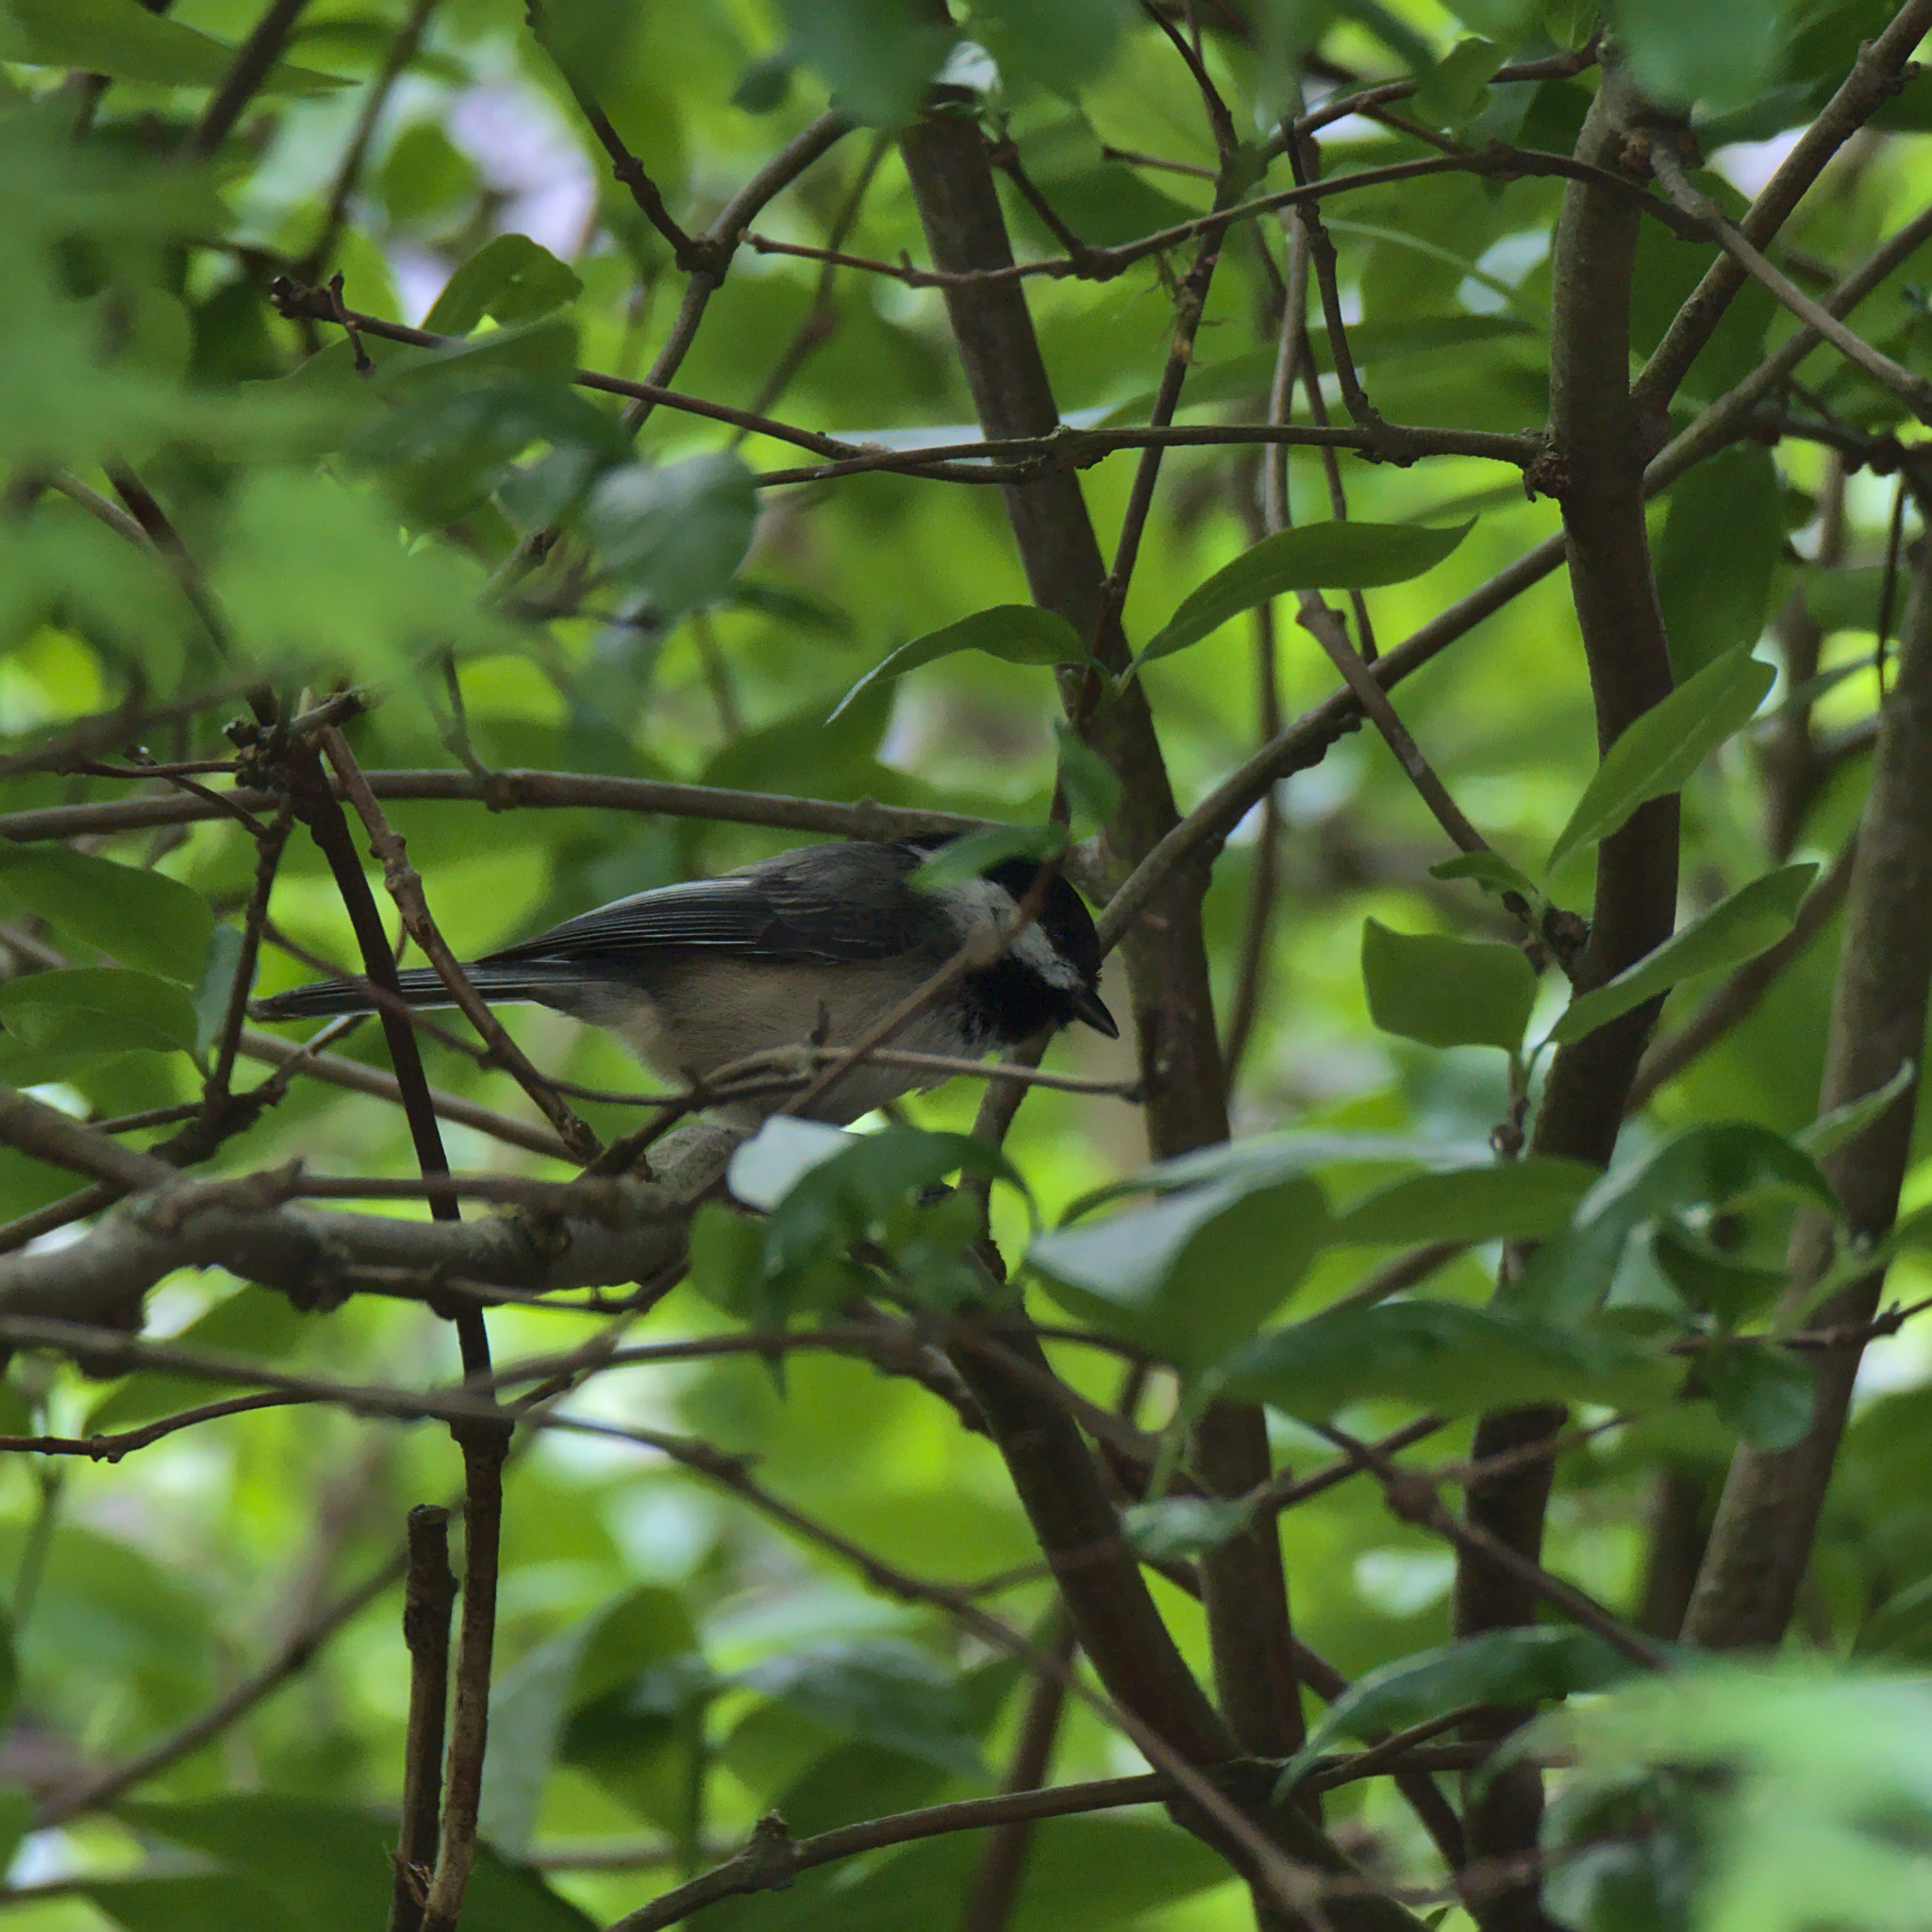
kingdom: Animalia
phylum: Chordata
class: Aves
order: Passeriformes
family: Paridae
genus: Poecile
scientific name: Poecile atricapillus
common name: Black-capped chickadee
